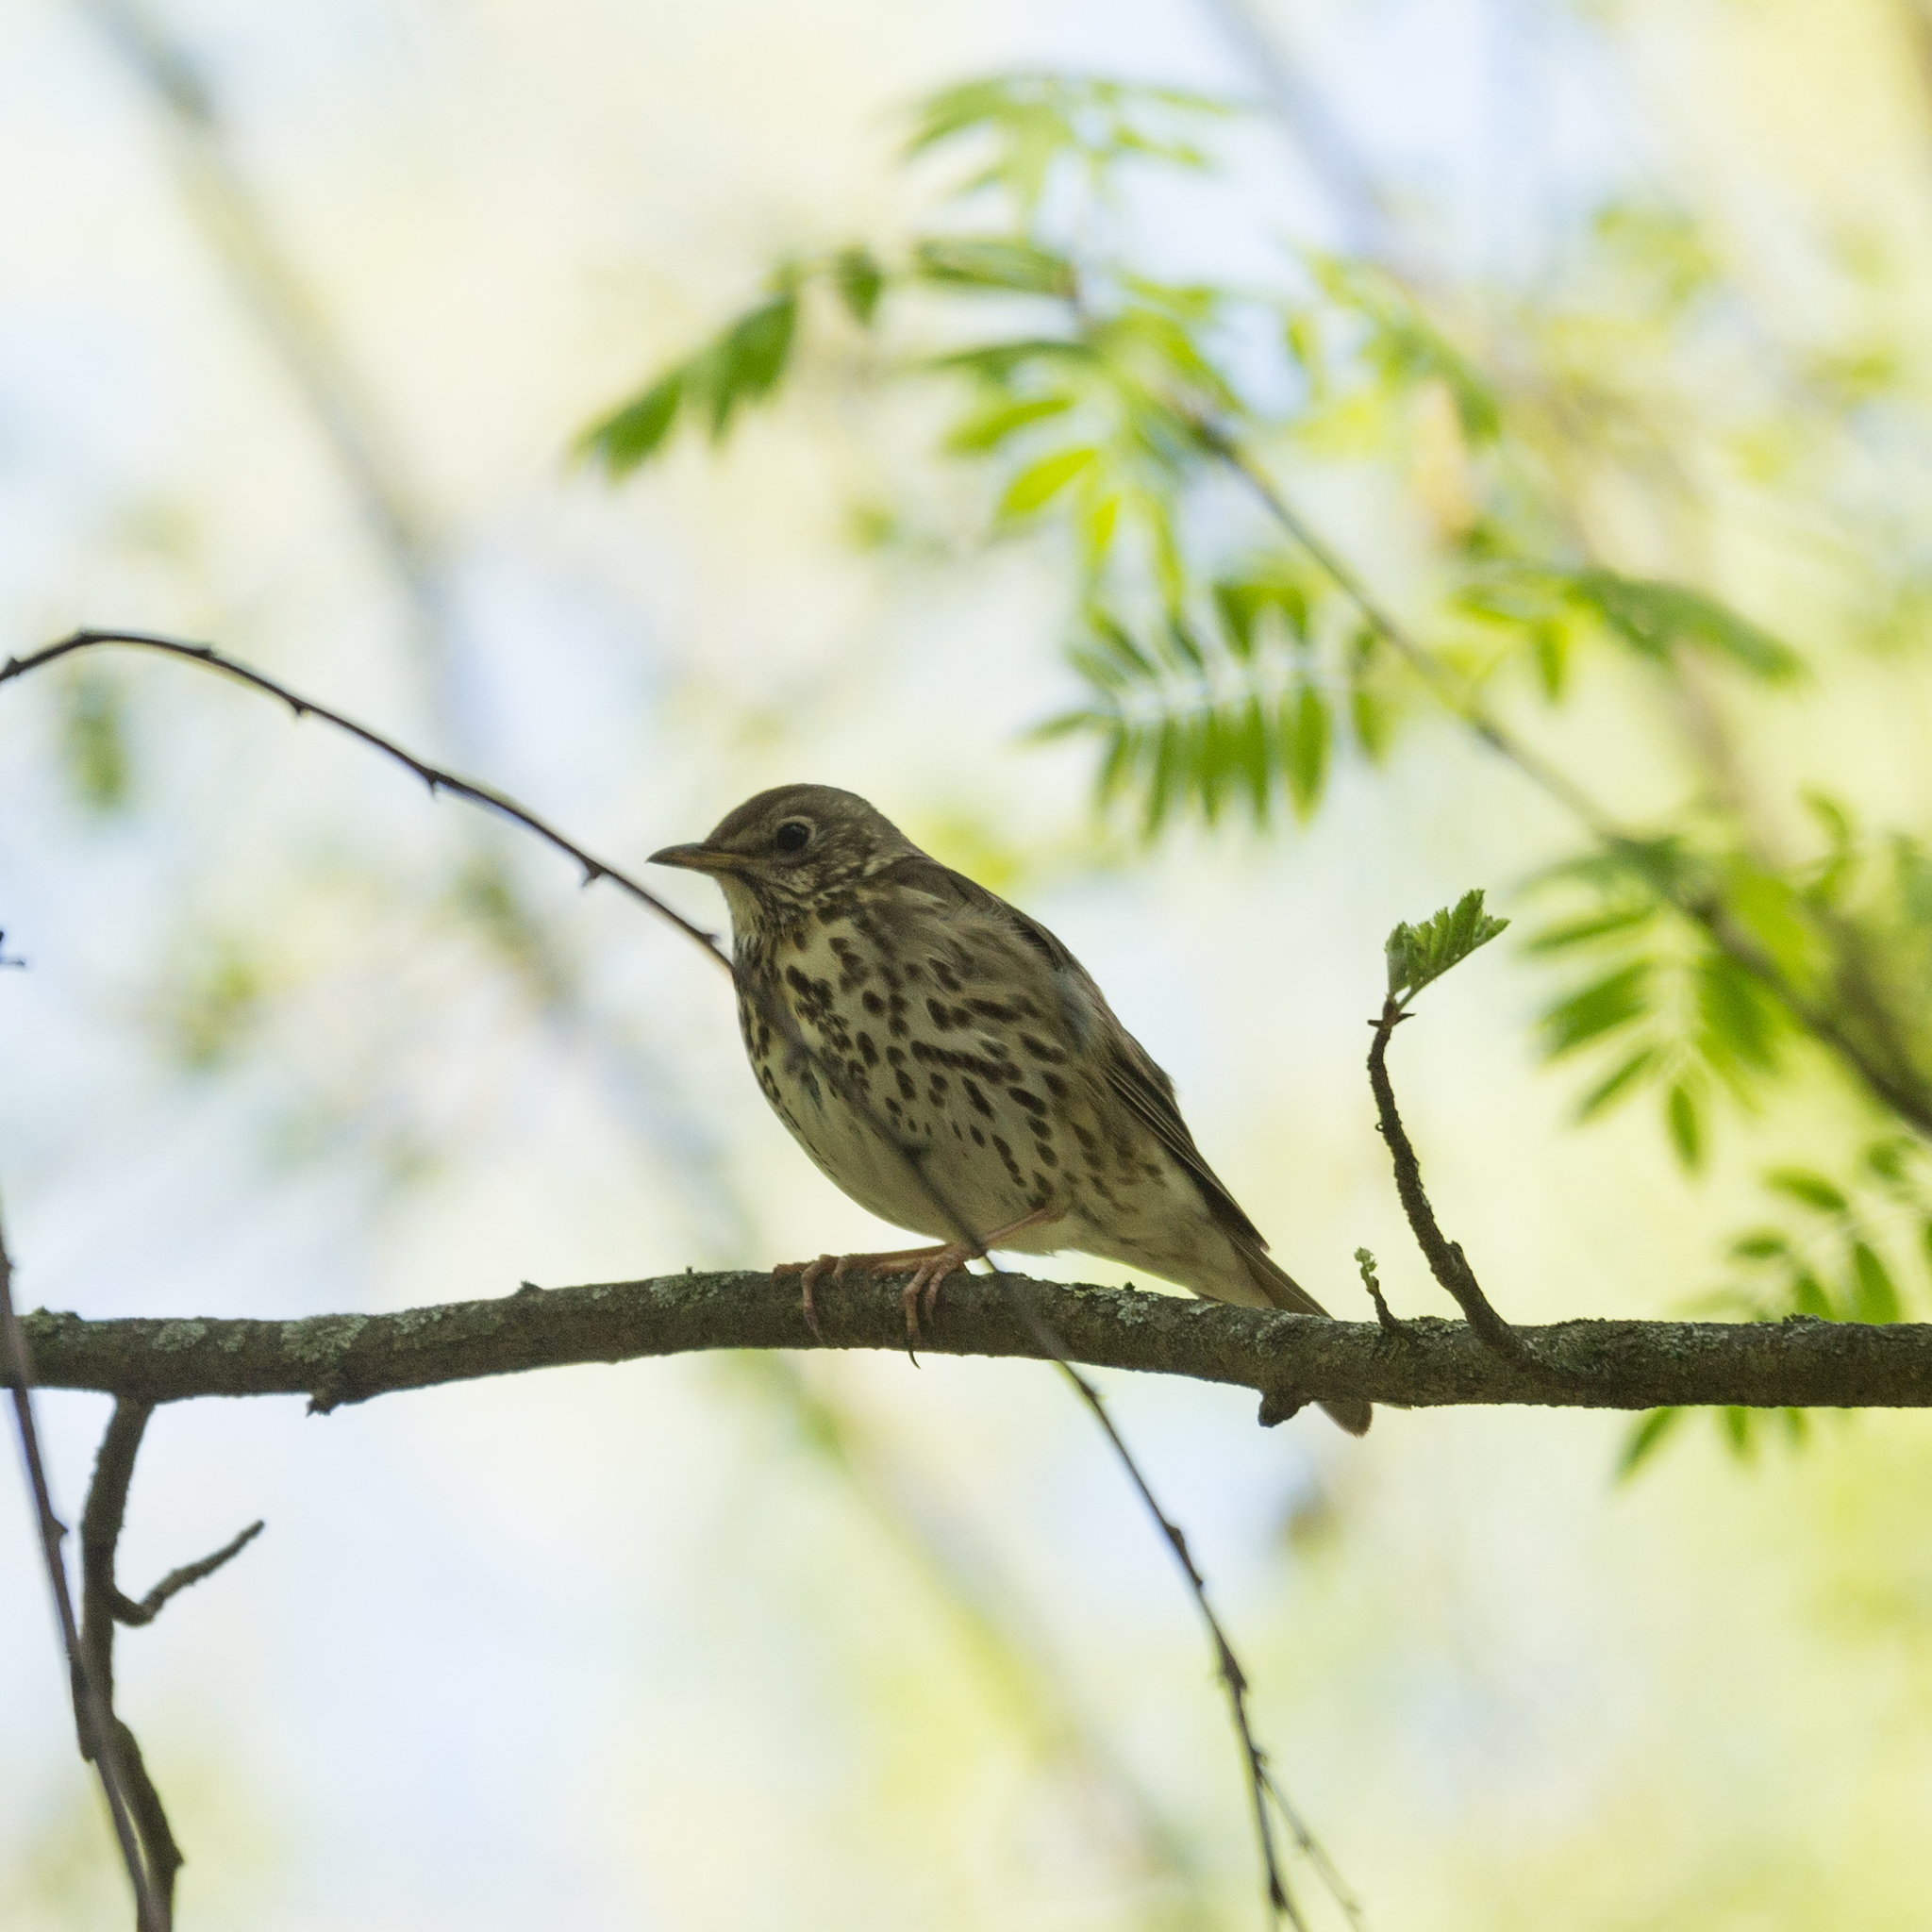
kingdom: Animalia
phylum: Chordata
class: Aves
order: Passeriformes
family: Turdidae
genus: Turdus
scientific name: Turdus philomelos
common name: Song thrush
